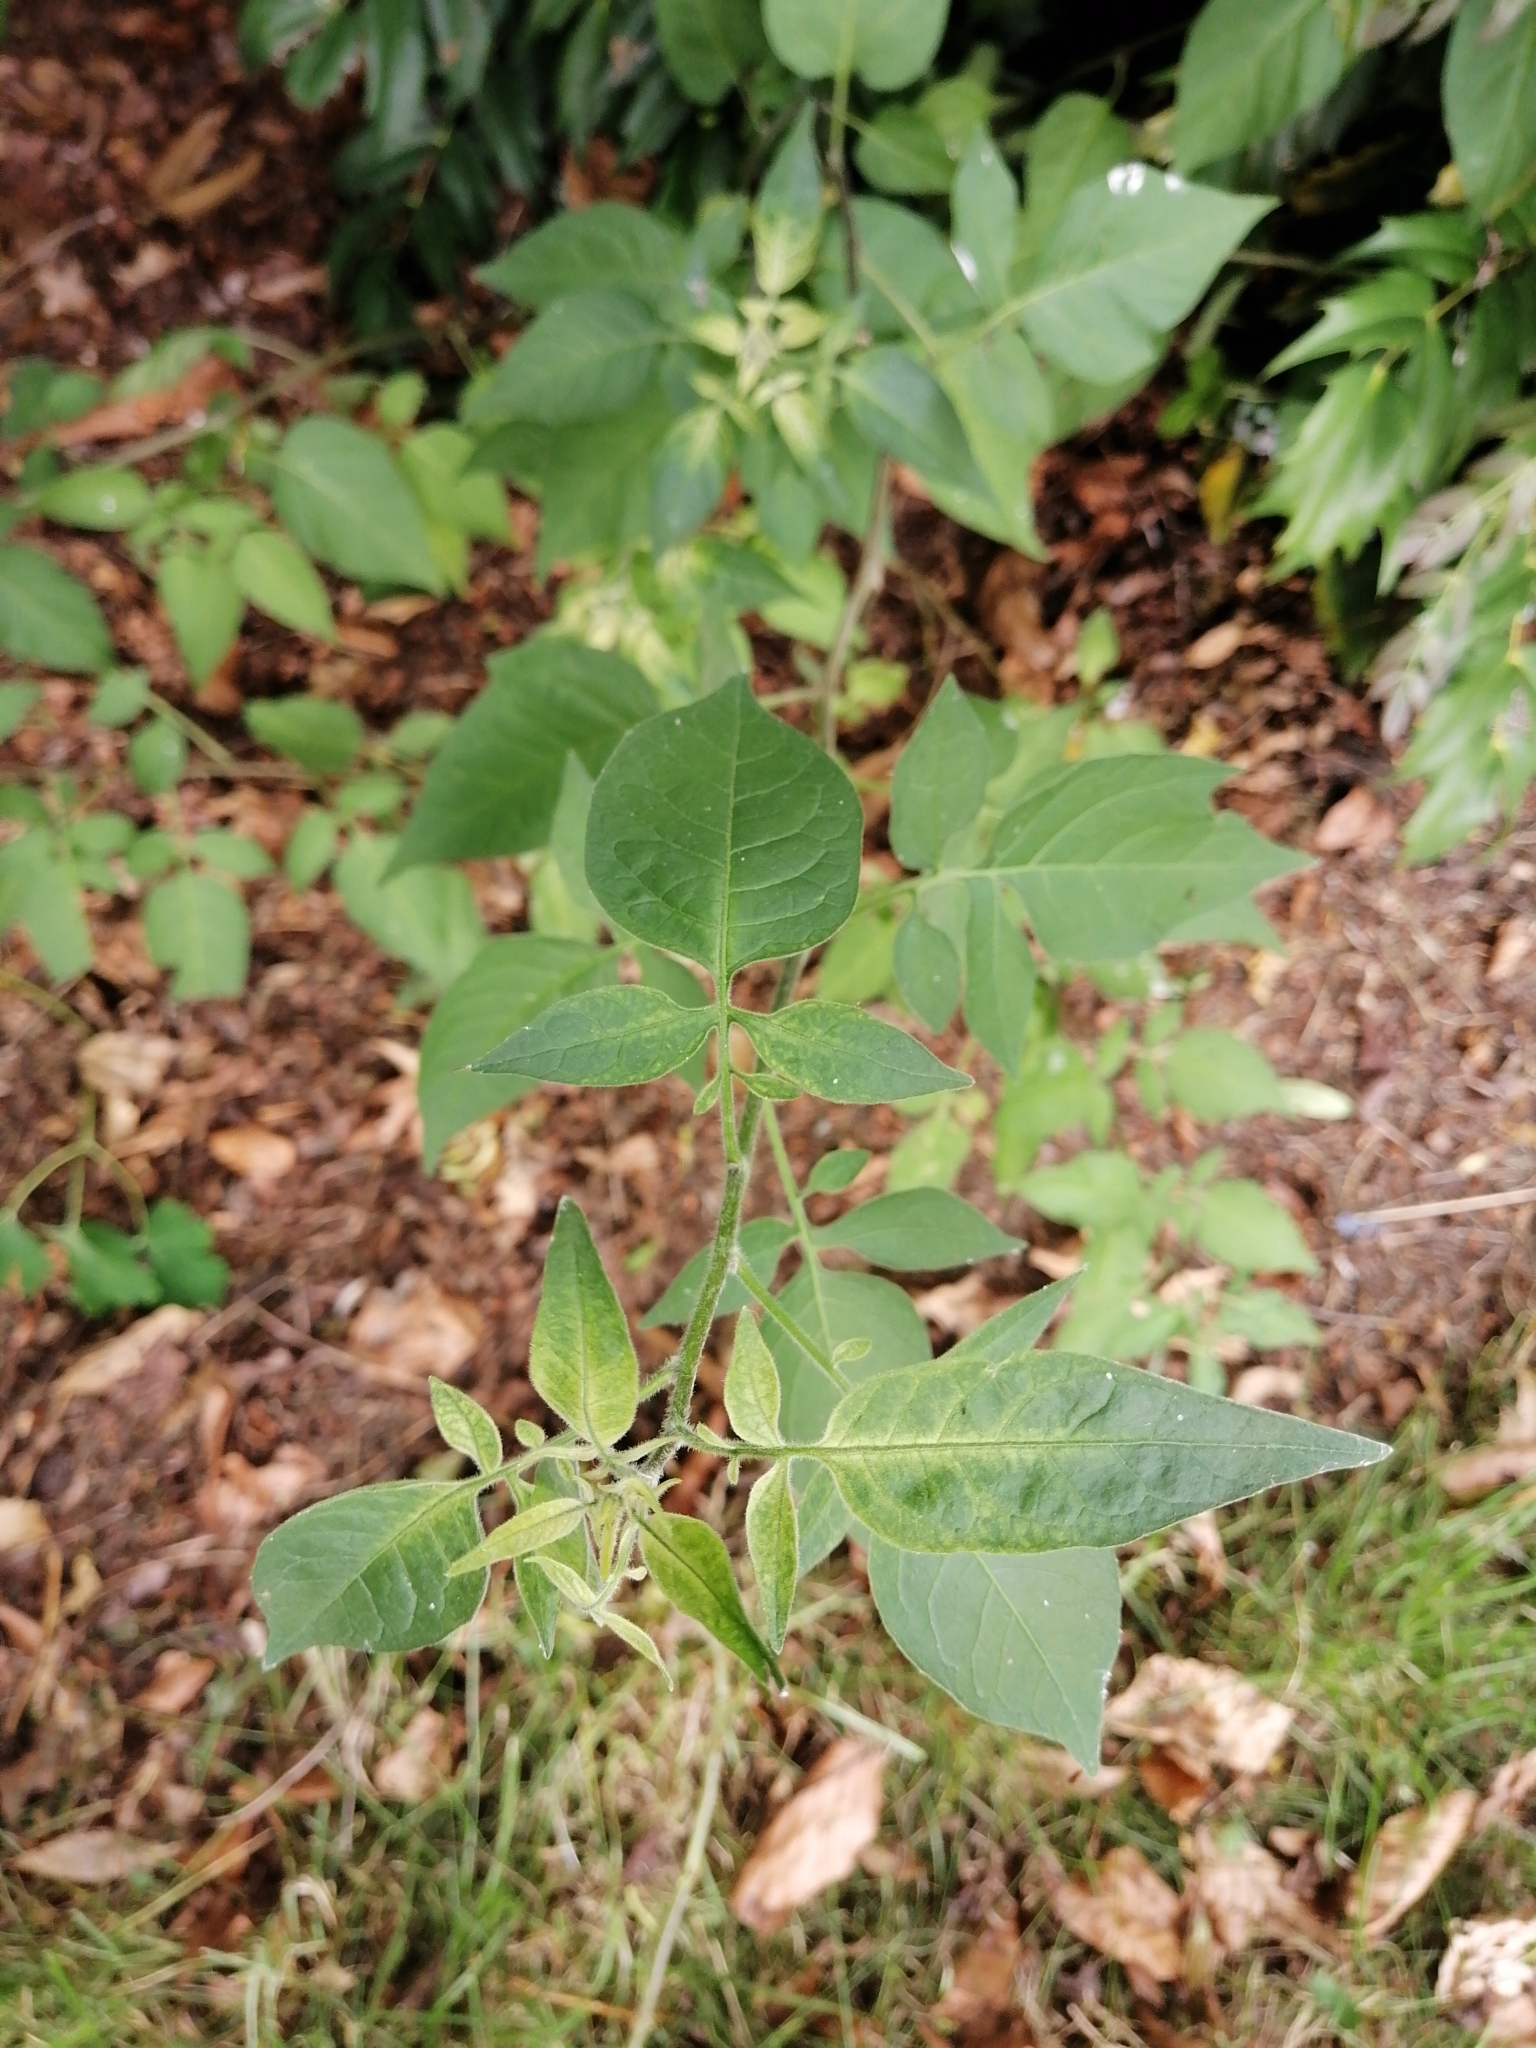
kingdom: Plantae
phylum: Tracheophyta
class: Magnoliopsida
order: Solanales
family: Solanaceae
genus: Solanum
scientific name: Solanum dulcamara
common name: Climbing nightshade
